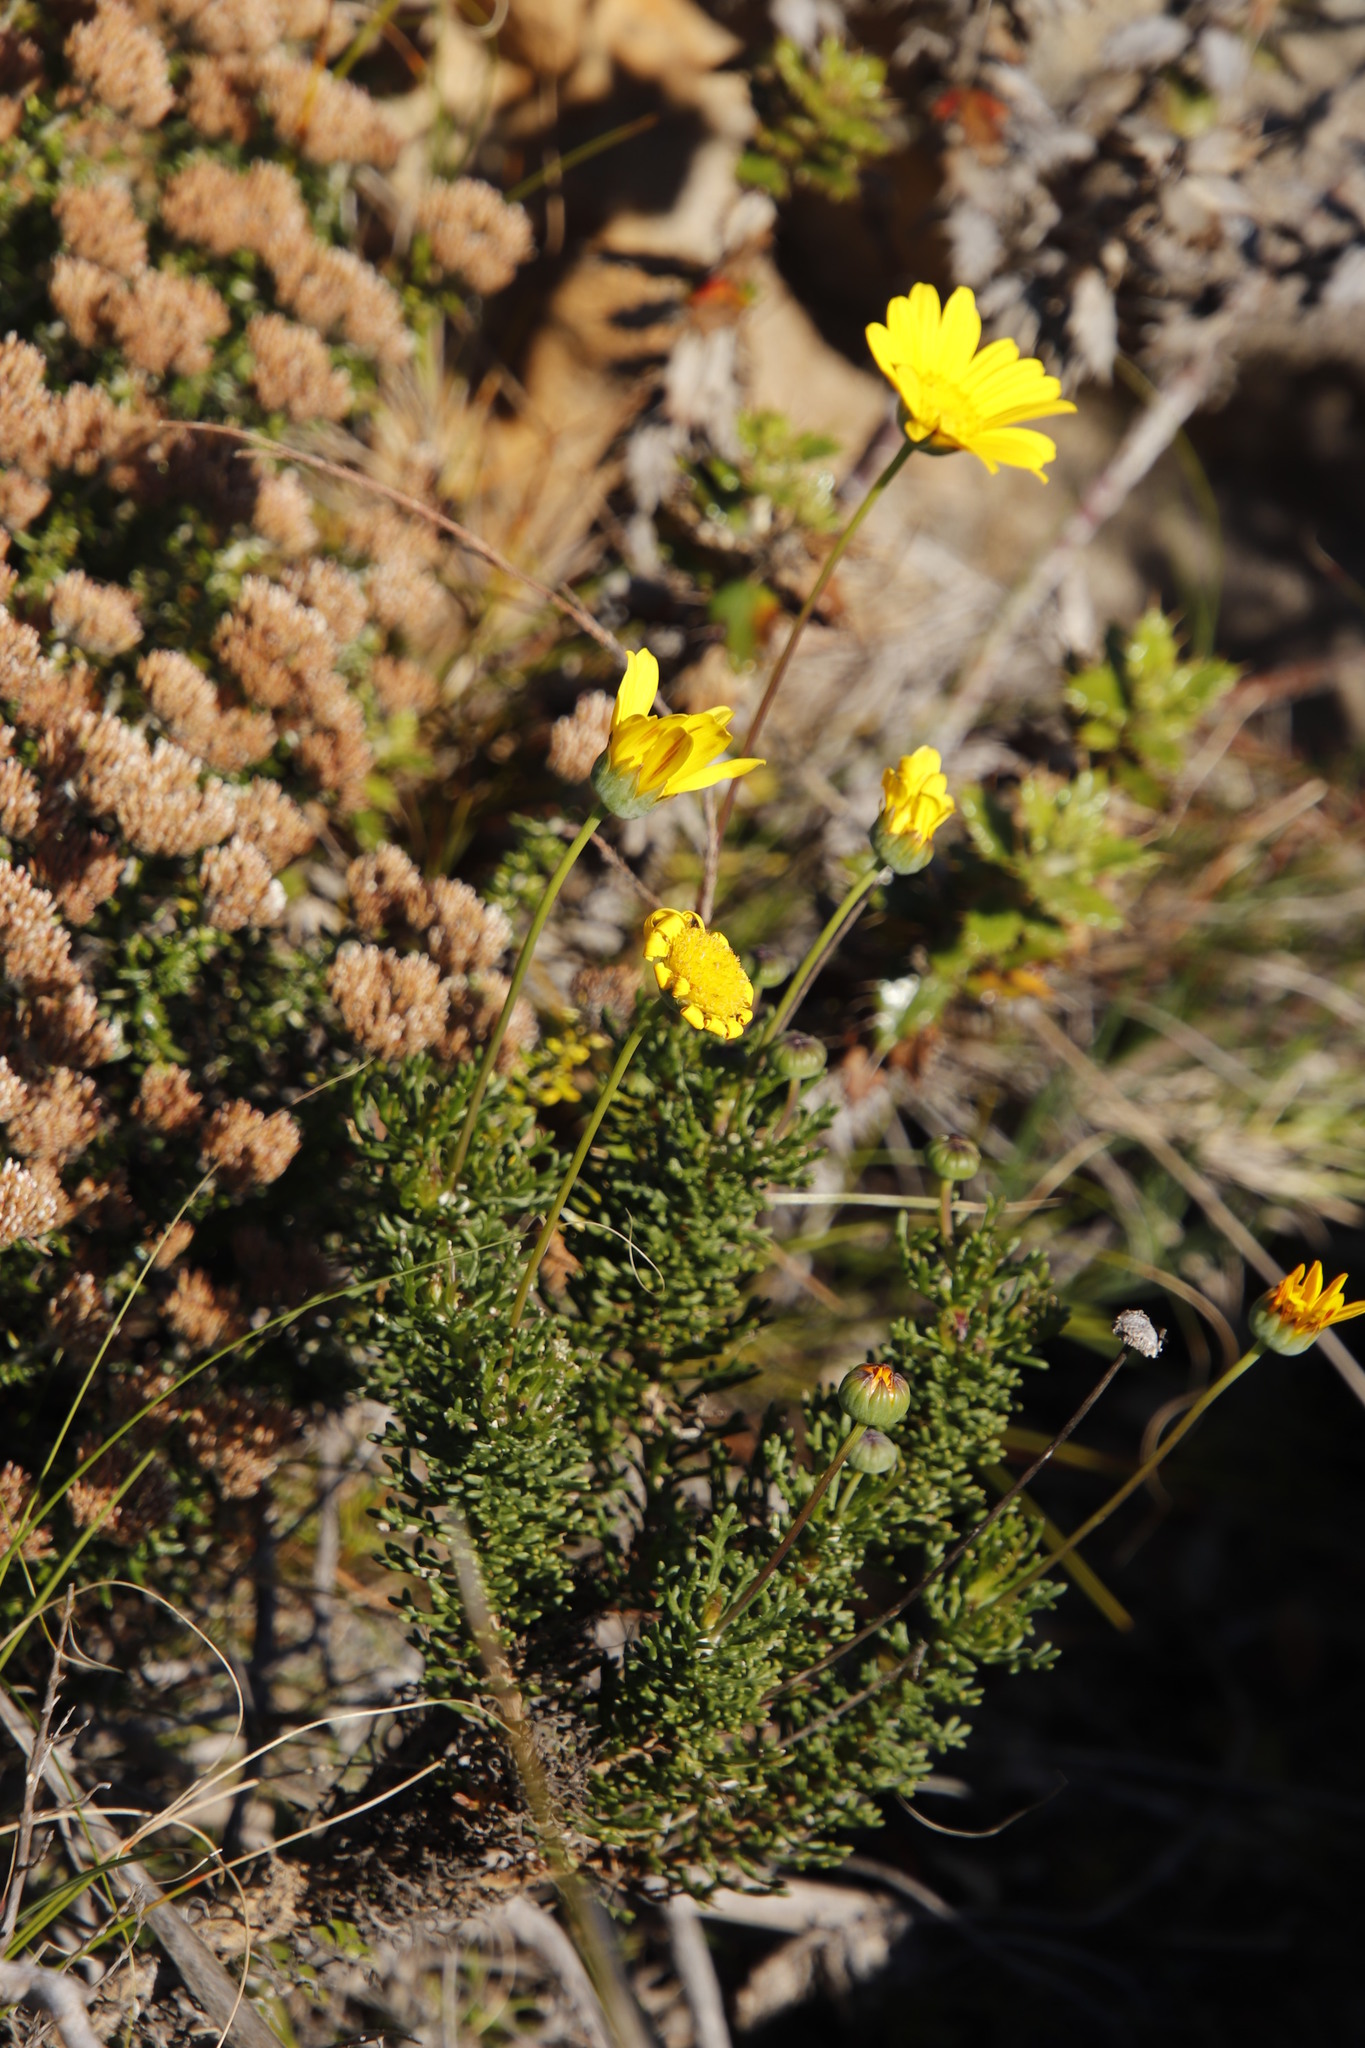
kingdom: Plantae
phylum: Tracheophyta
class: Magnoliopsida
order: Asterales
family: Asteraceae
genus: Euryops
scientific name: Euryops abrotanifolius
